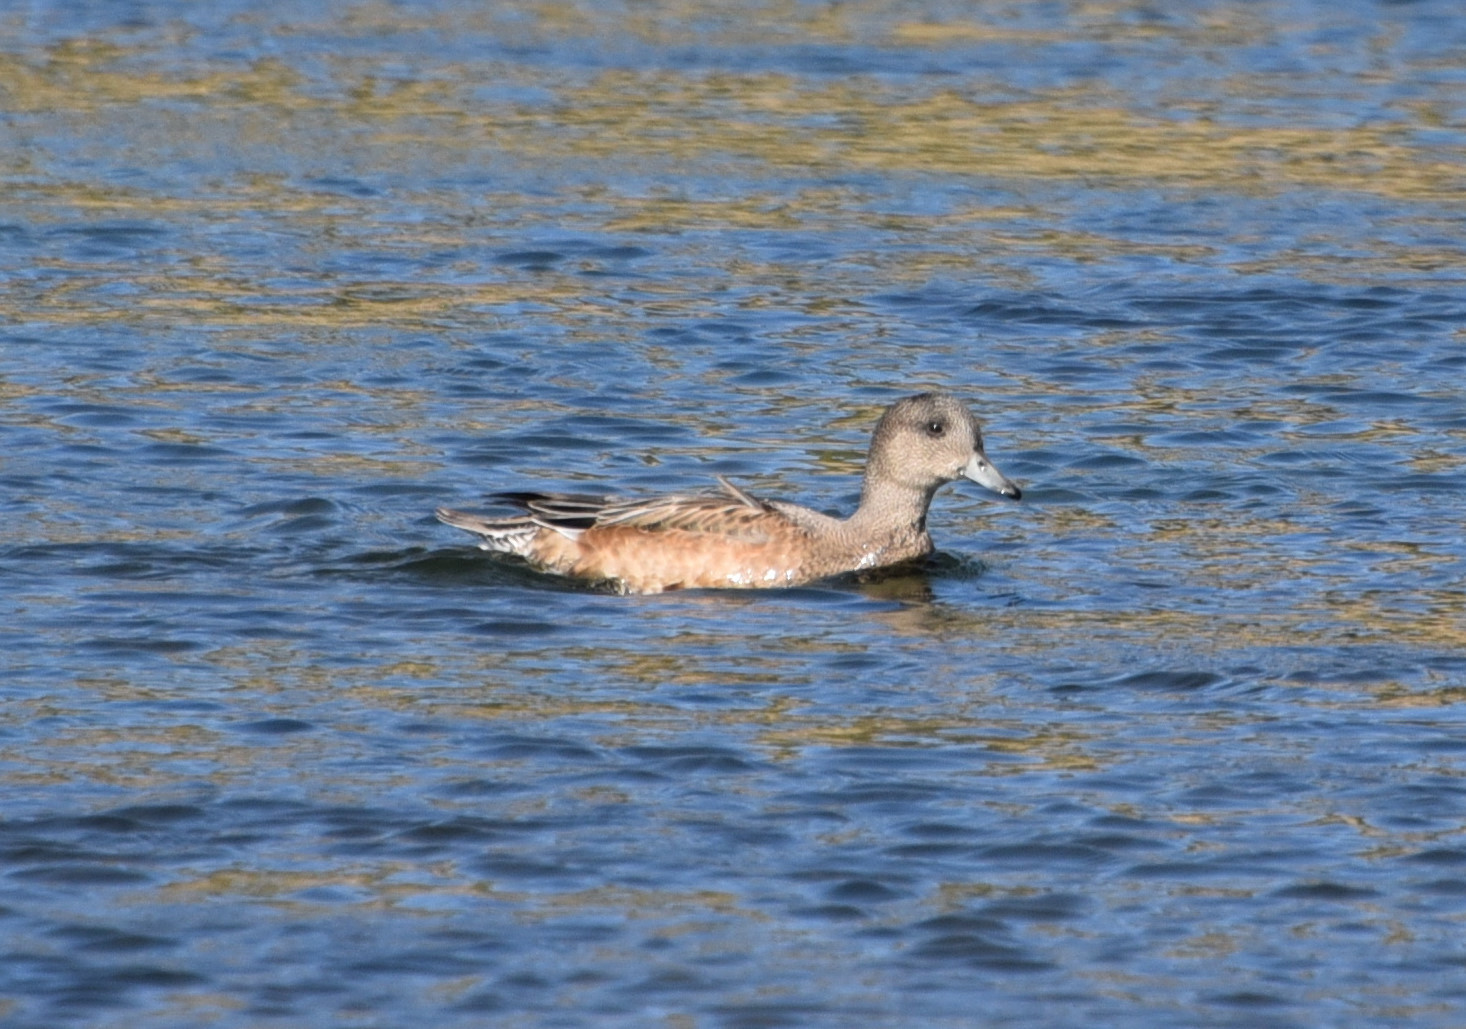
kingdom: Animalia
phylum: Chordata
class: Aves
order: Anseriformes
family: Anatidae
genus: Mareca
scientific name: Mareca americana
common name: American wigeon
